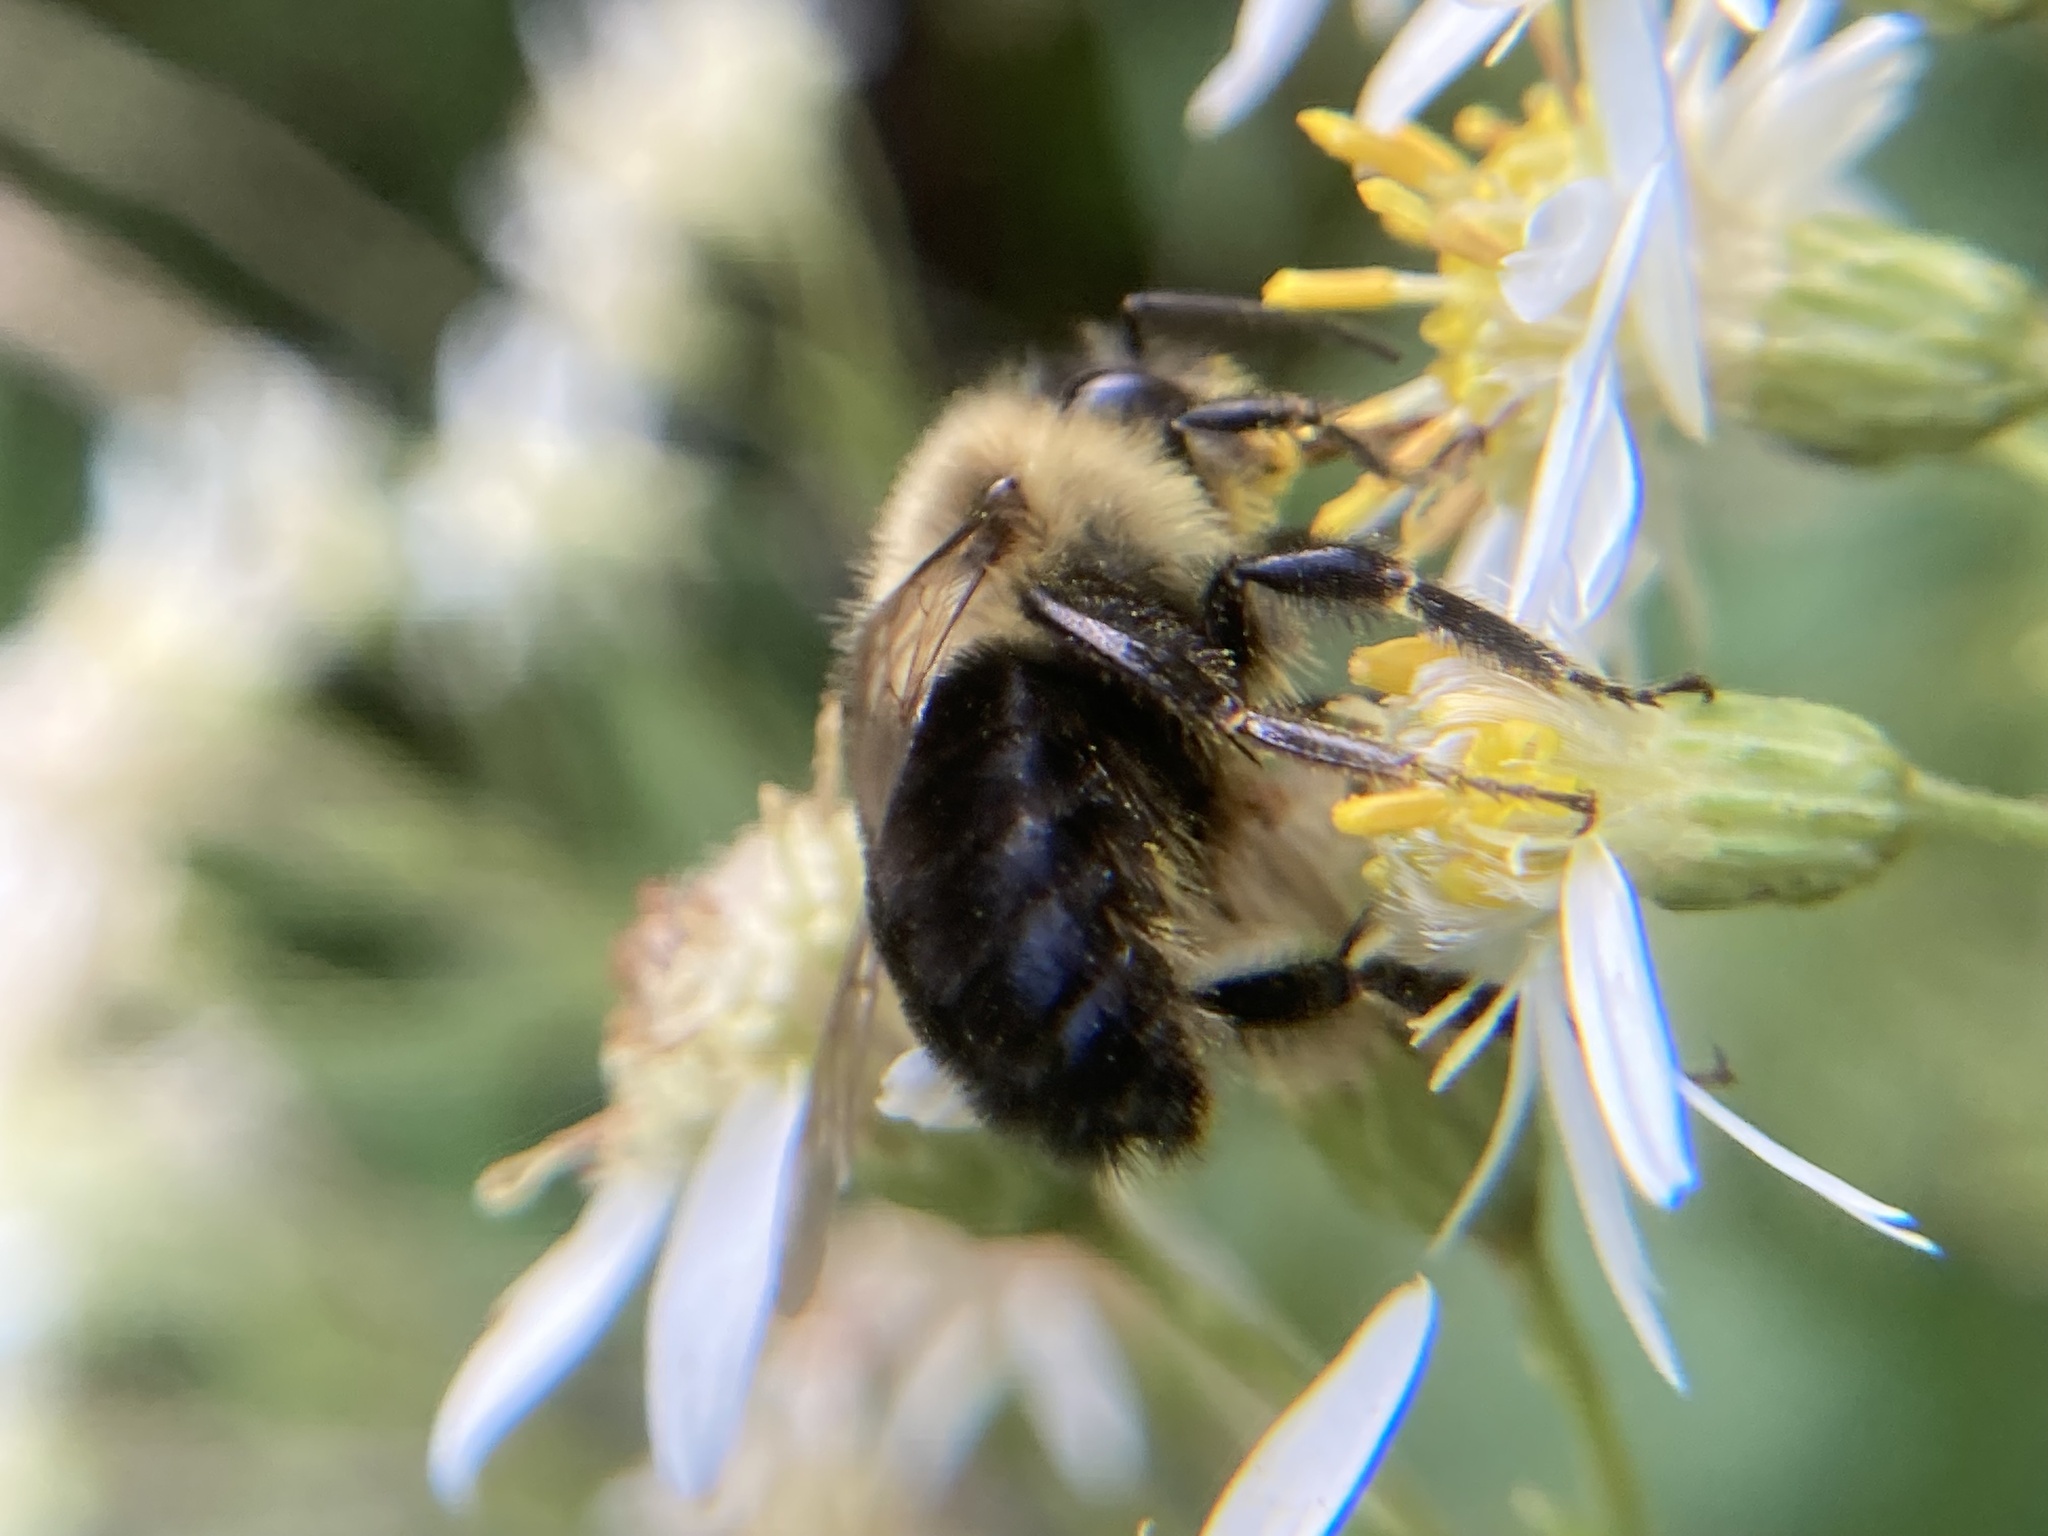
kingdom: Animalia
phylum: Arthropoda
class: Insecta
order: Hymenoptera
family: Apidae
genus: Bombus
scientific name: Bombus impatiens
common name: Common eastern bumble bee
